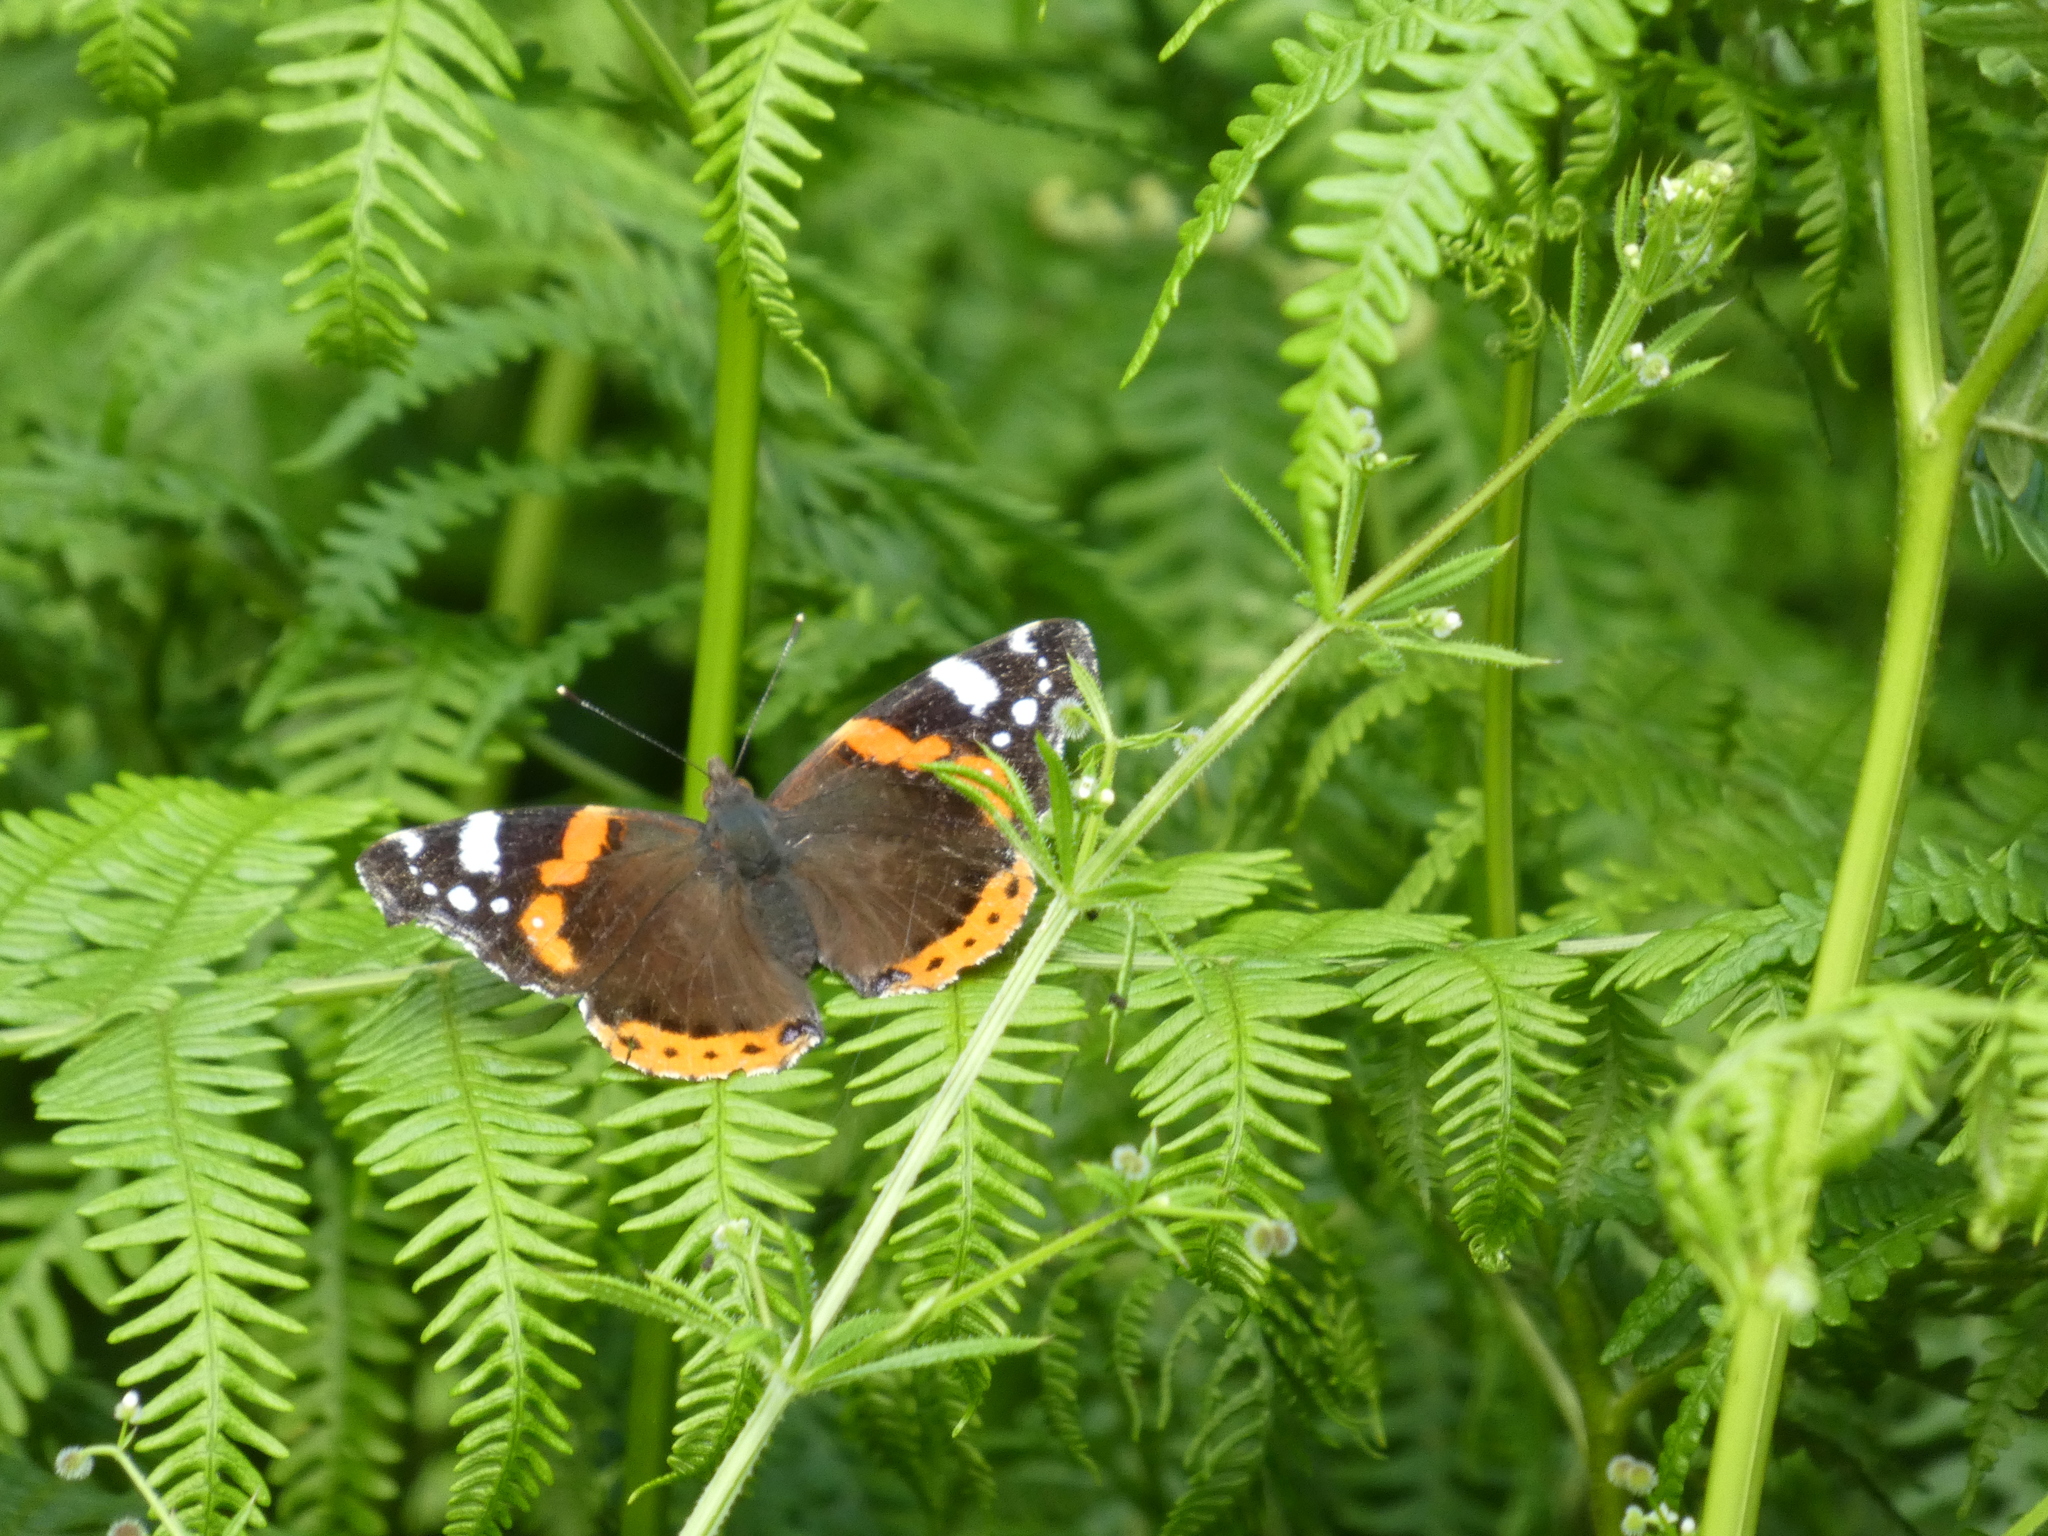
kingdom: Animalia
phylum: Arthropoda
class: Insecta
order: Lepidoptera
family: Nymphalidae
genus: Vanessa
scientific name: Vanessa atalanta
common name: Red admiral
